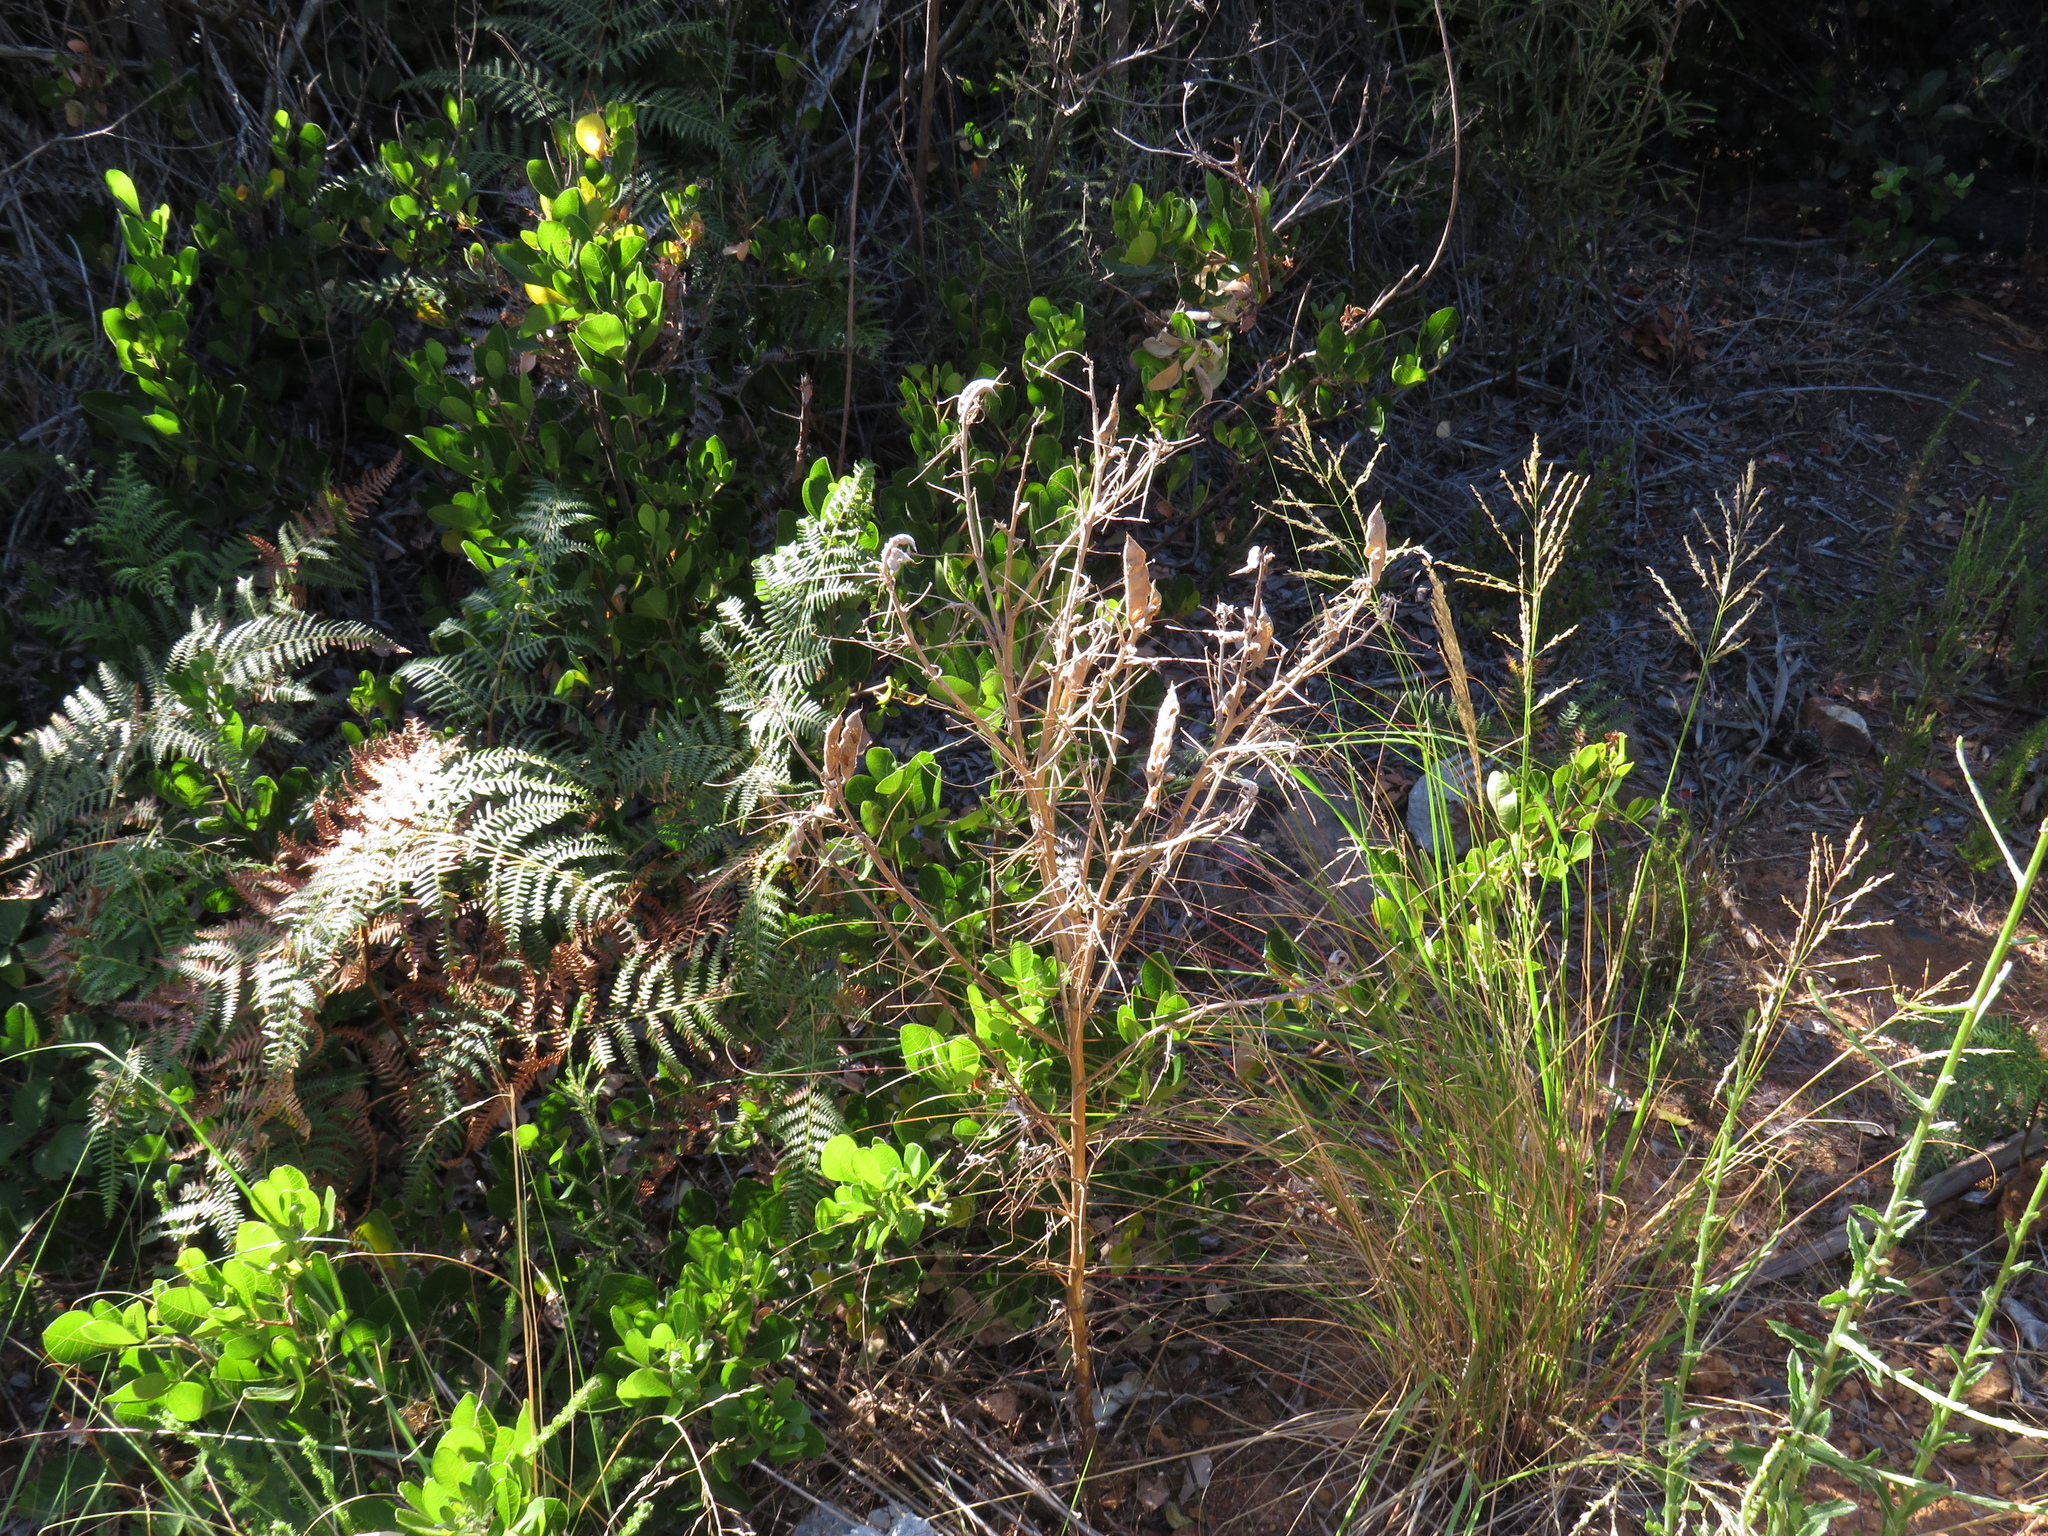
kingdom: Plantae
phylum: Tracheophyta
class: Magnoliopsida
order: Fabales
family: Fabaceae
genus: Lupinus
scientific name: Lupinus angustifolius
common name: Narrow-leaved lupin
